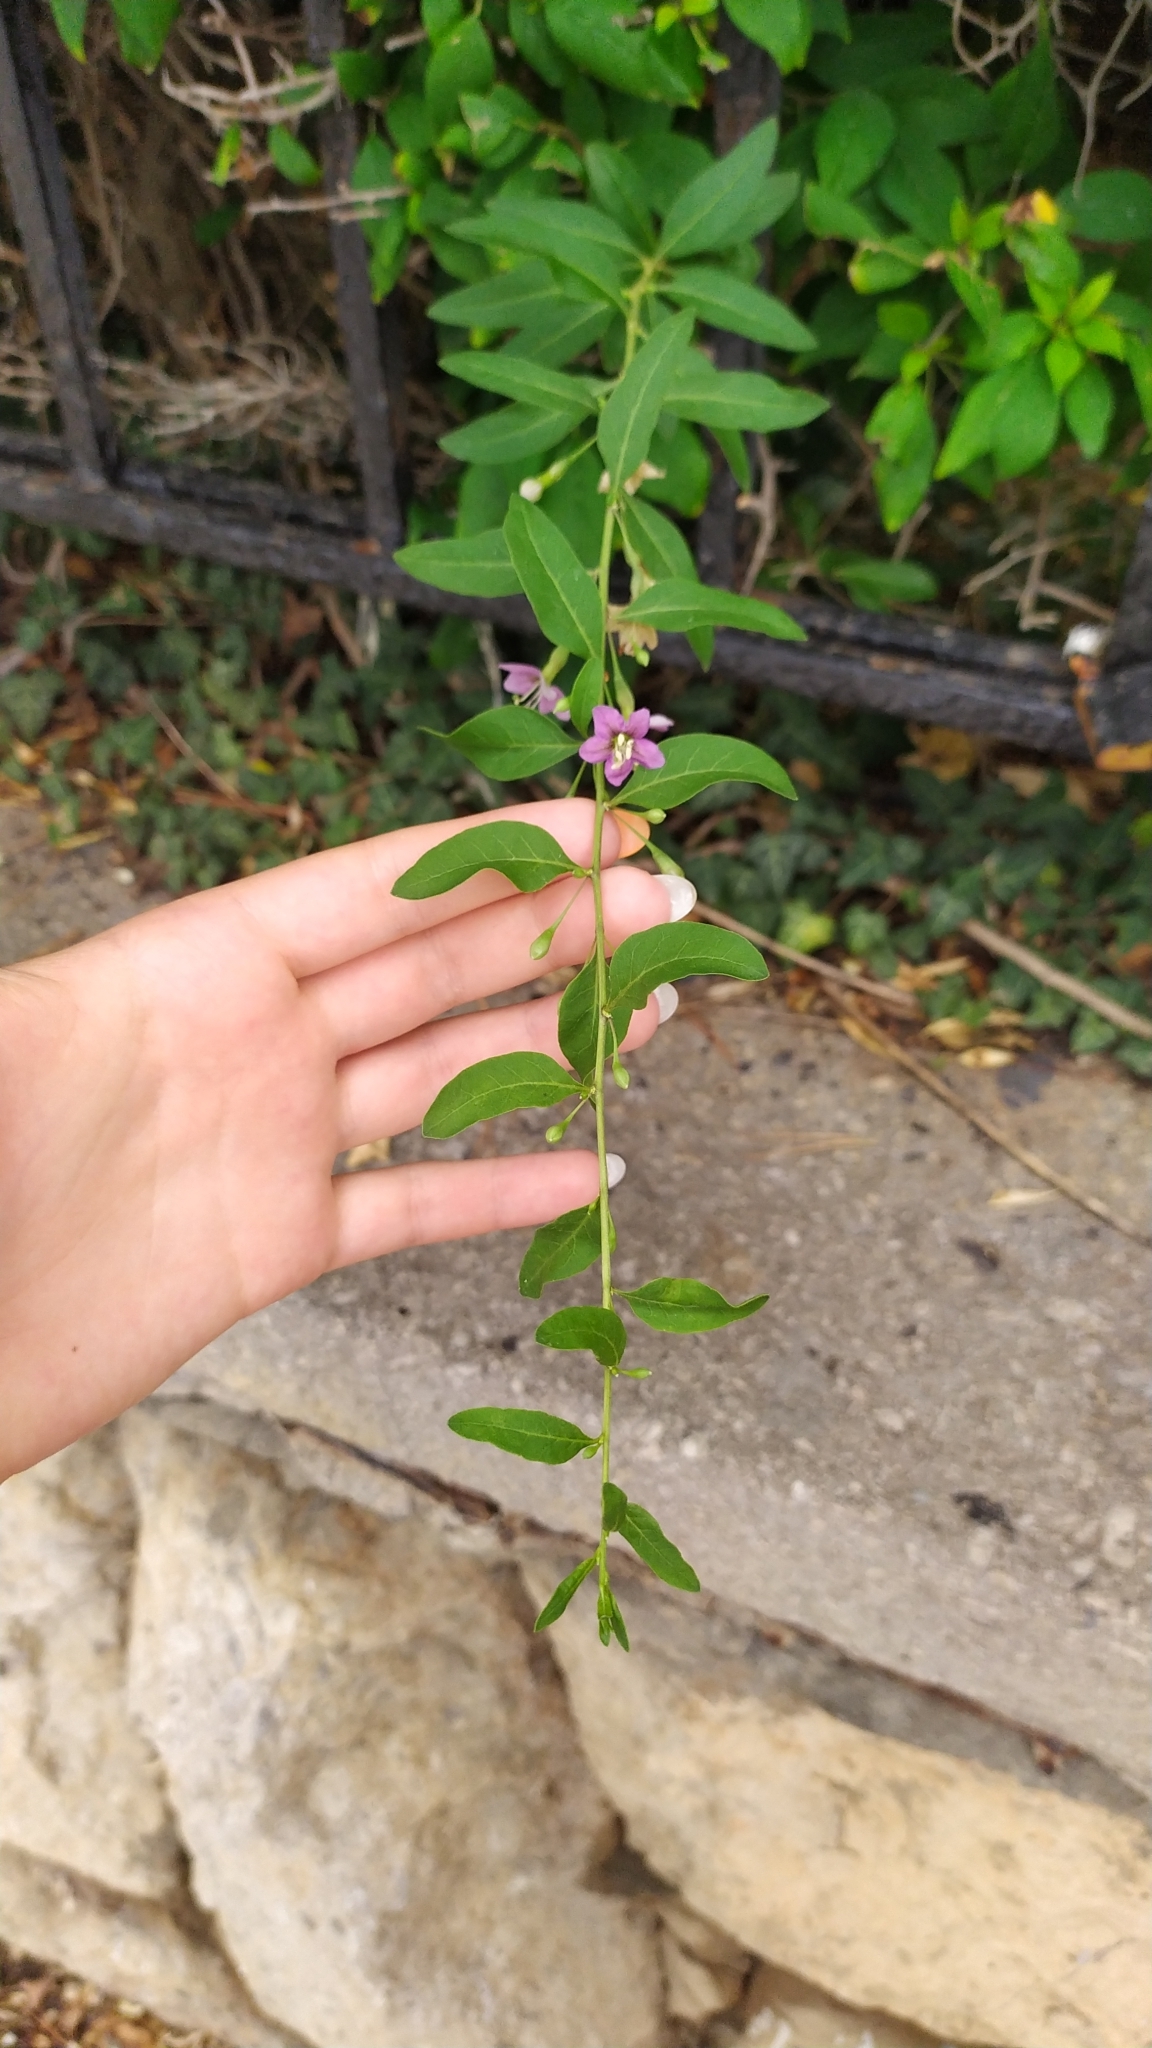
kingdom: Plantae
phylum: Tracheophyta
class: Magnoliopsida
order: Solanales
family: Solanaceae
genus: Lycium
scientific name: Lycium barbarum
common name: Duke of argyll's teaplant
